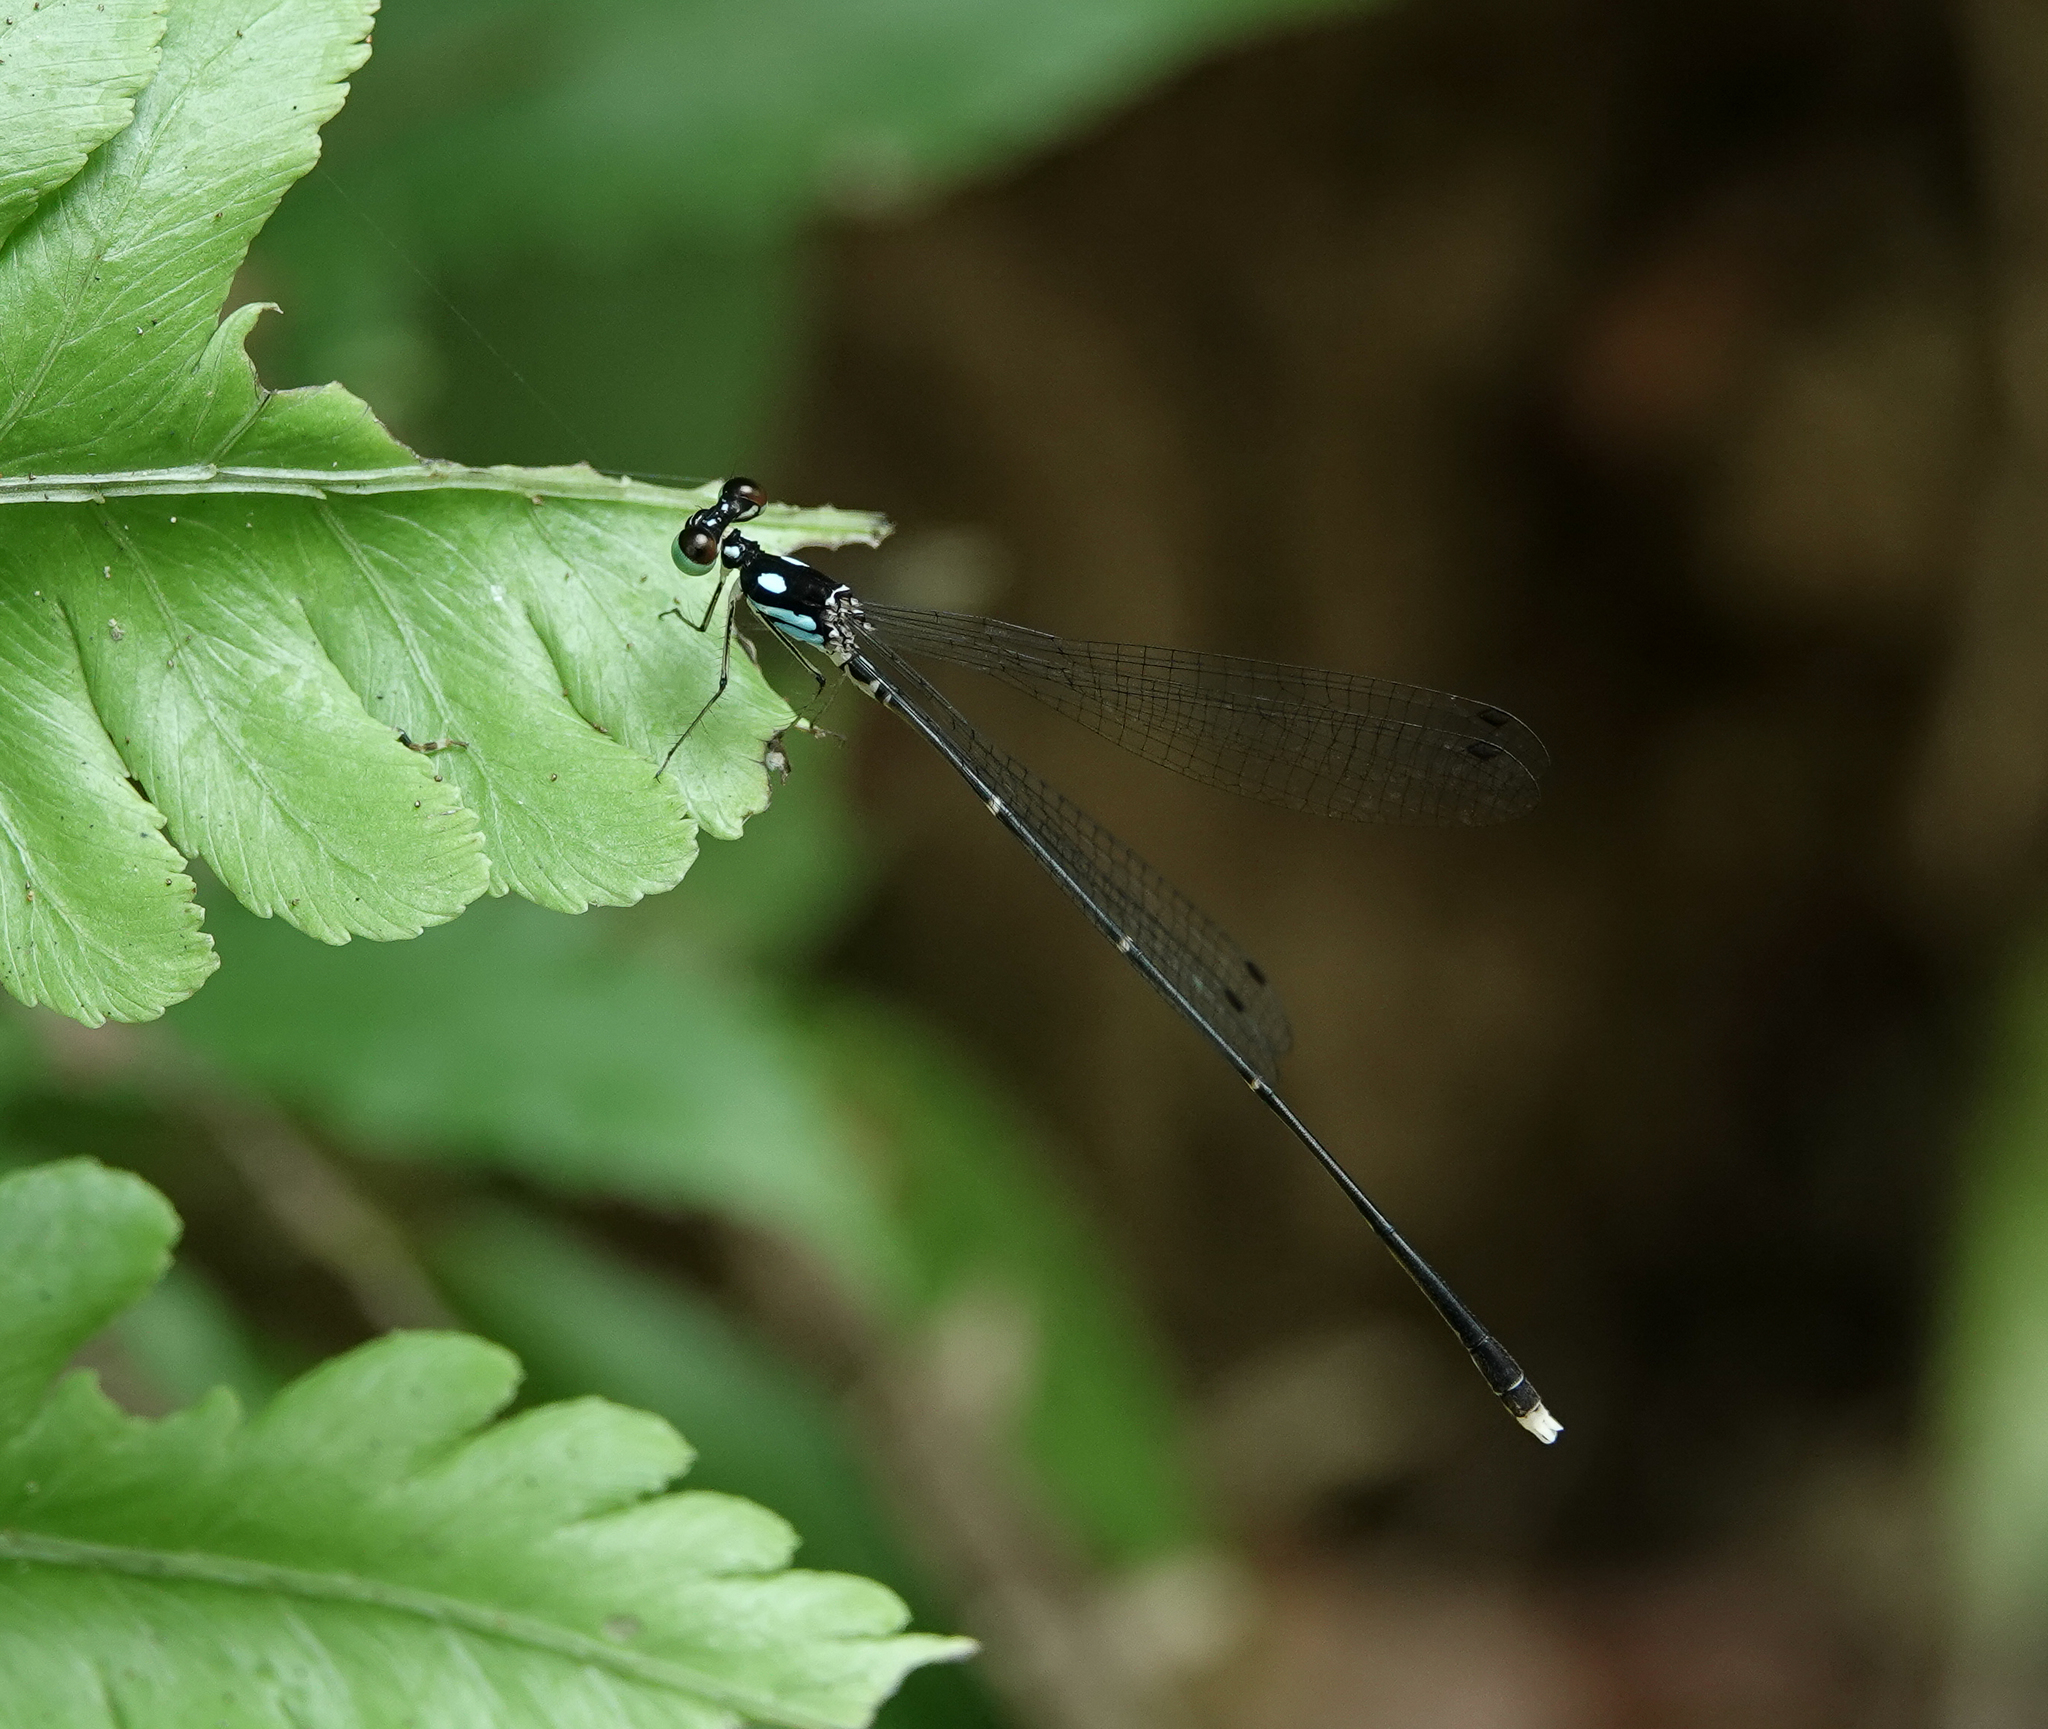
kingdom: Animalia
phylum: Arthropoda
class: Insecta
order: Odonata
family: Platycnemididae
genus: Coeliccia
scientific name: Coeliccia bimaculata
